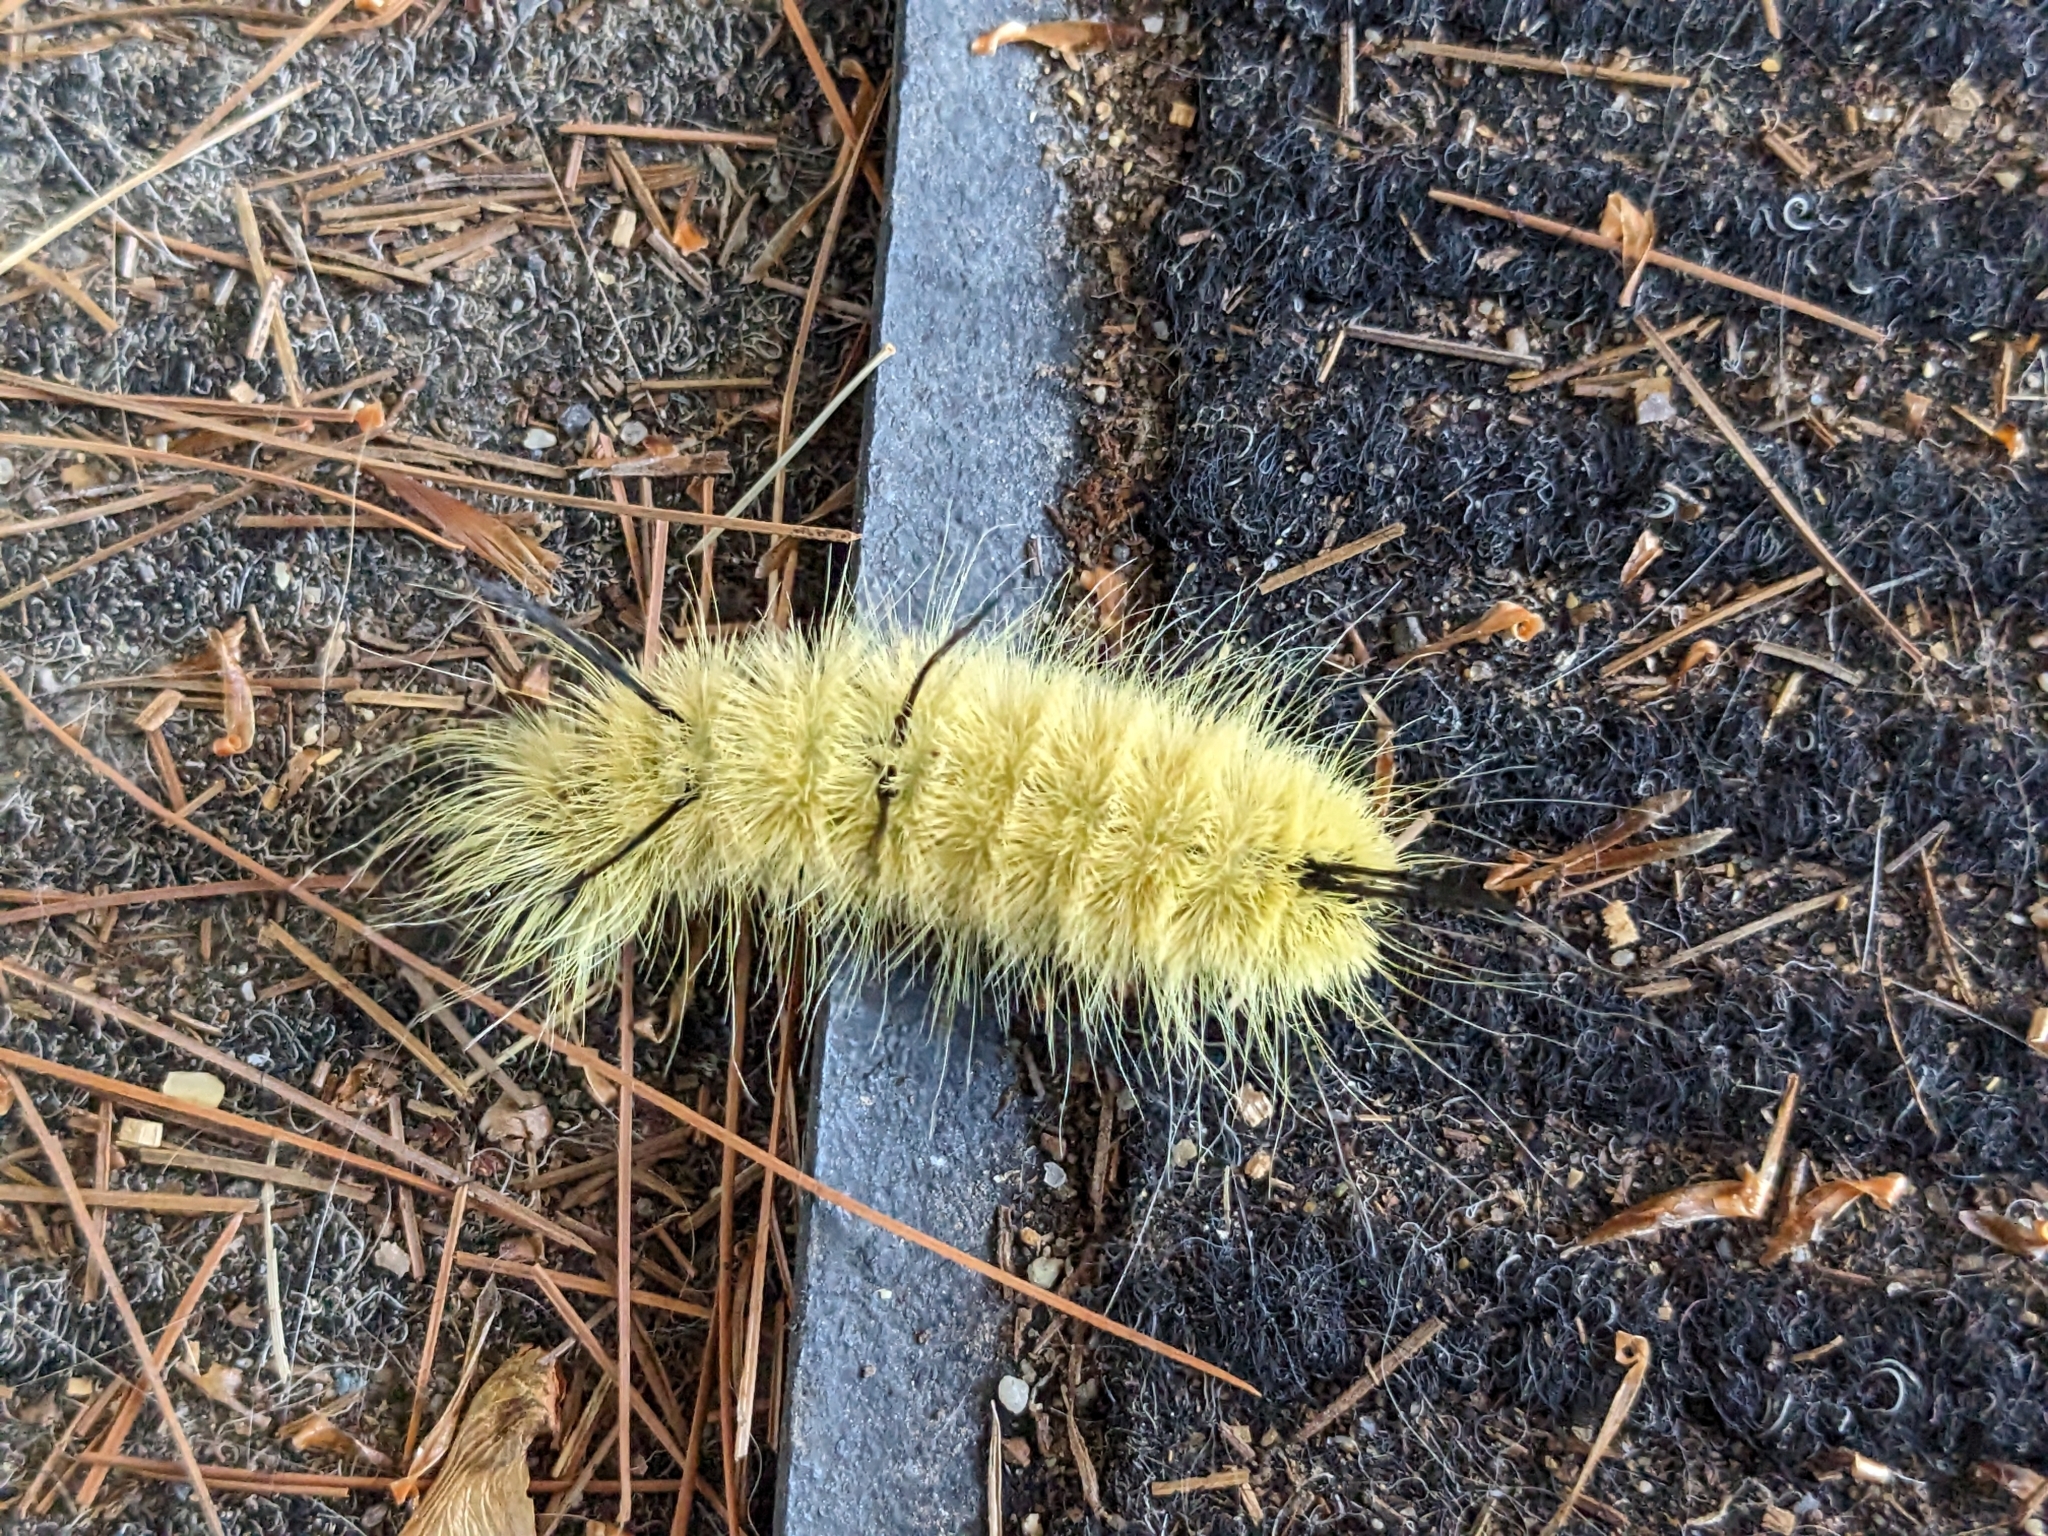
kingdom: Animalia
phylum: Arthropoda
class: Insecta
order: Lepidoptera
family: Noctuidae
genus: Acronicta
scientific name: Acronicta americana
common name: American dagger
